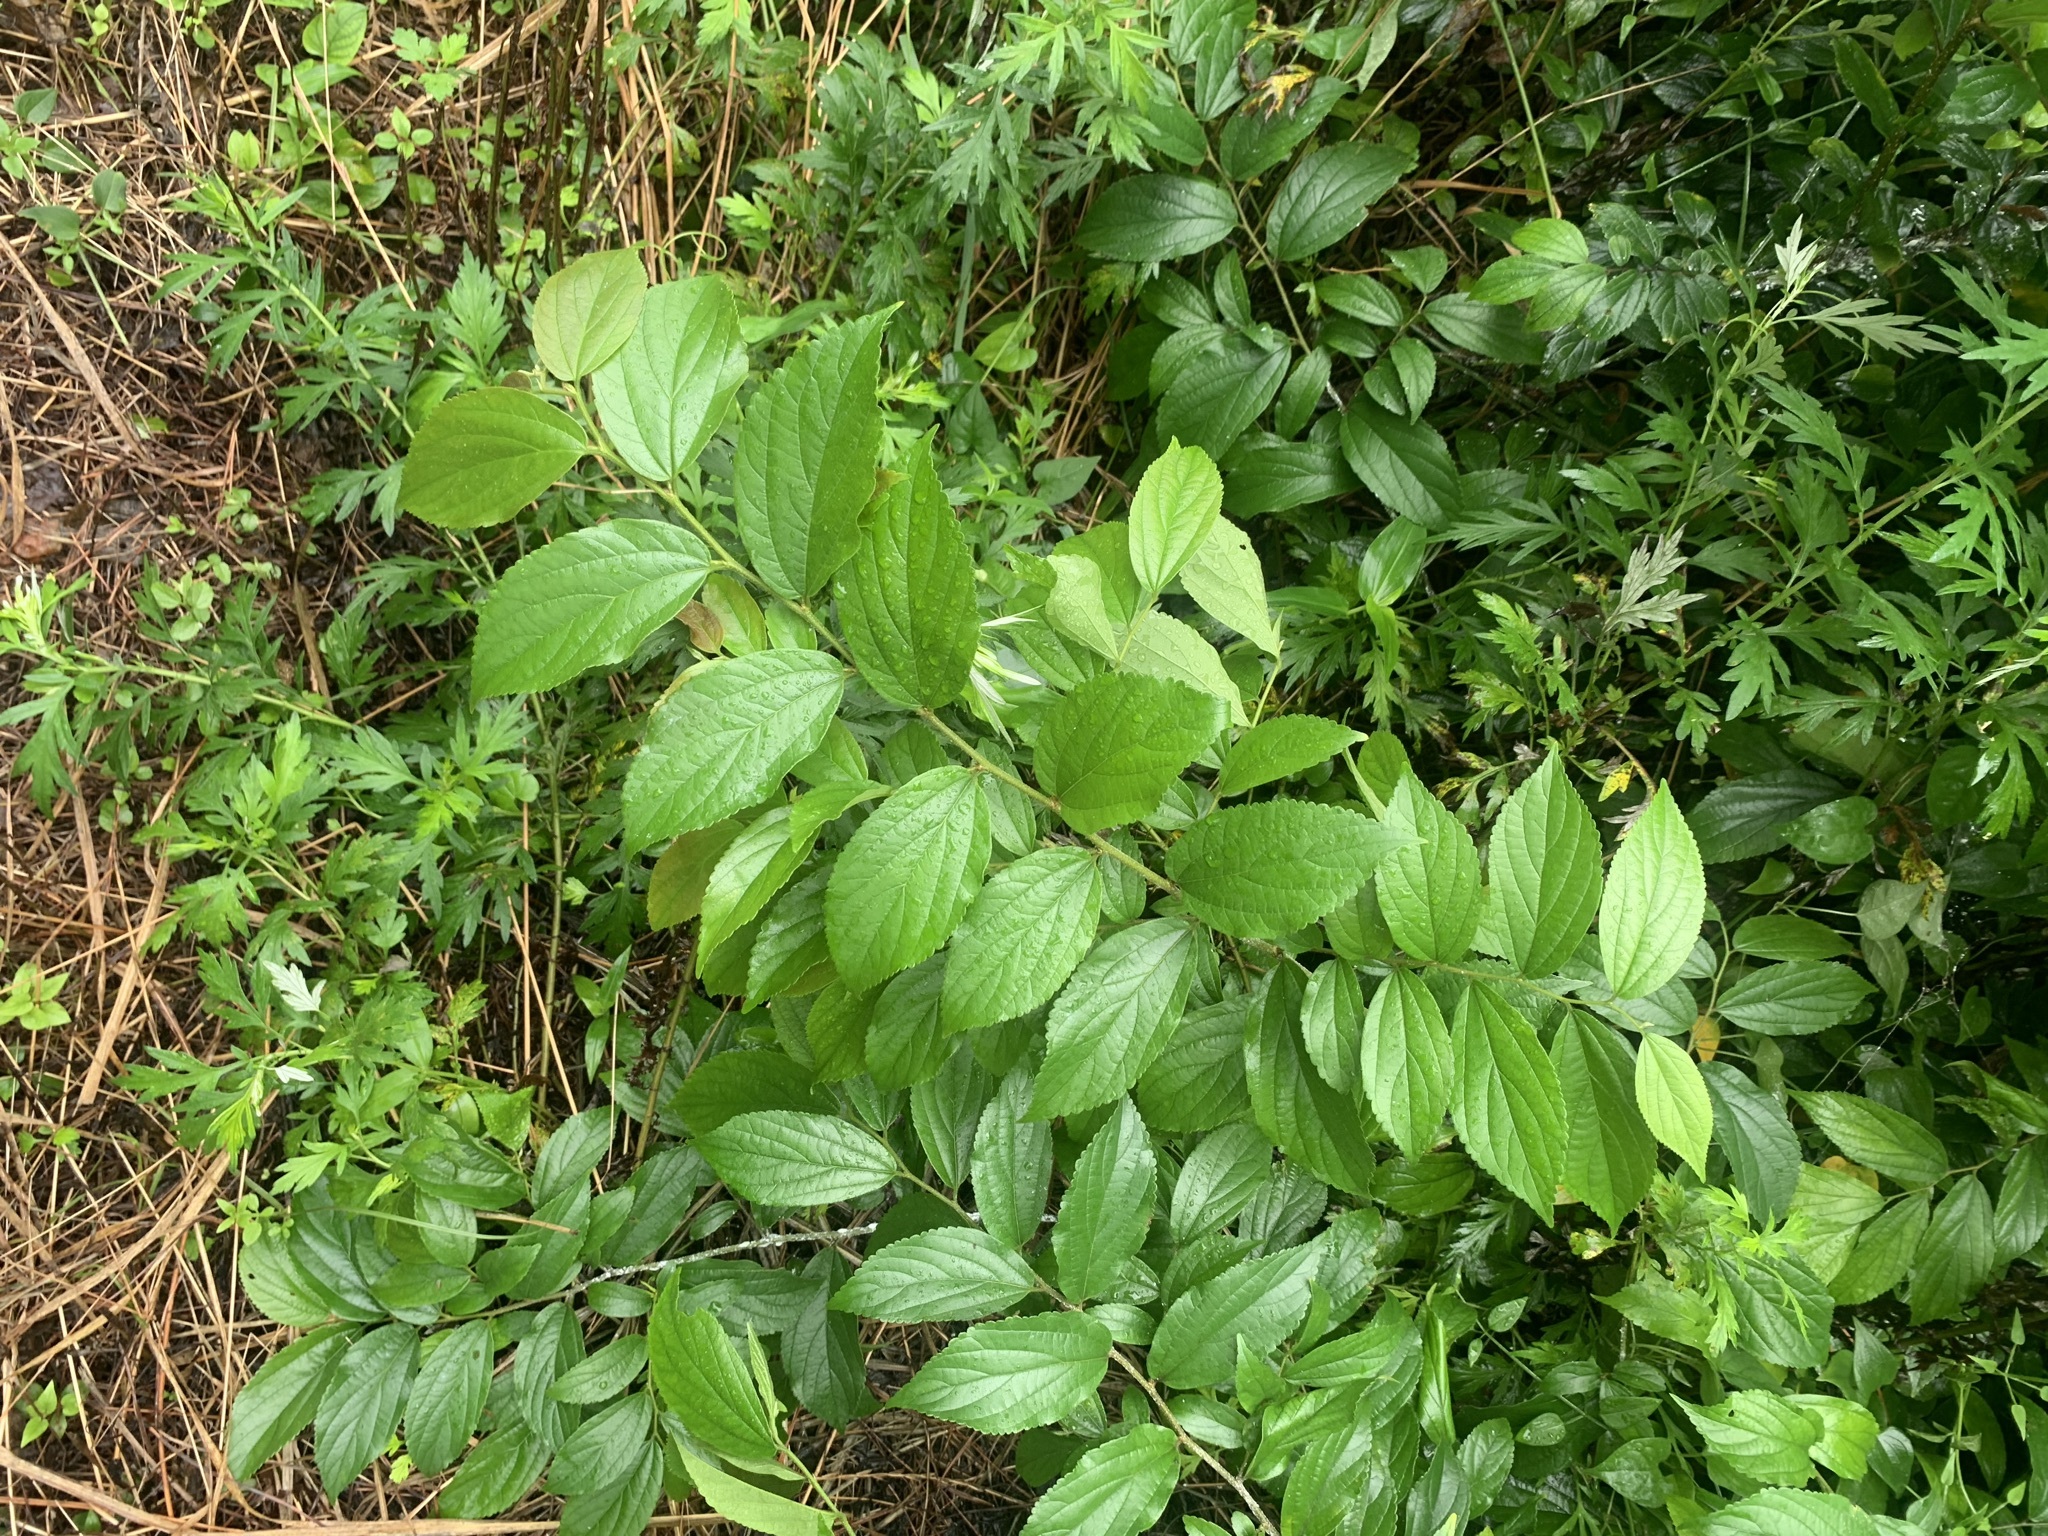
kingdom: Plantae
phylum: Tracheophyta
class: Magnoliopsida
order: Rosales
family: Cannabaceae
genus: Celtis
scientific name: Celtis sinensis
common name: Chinese hackberry
